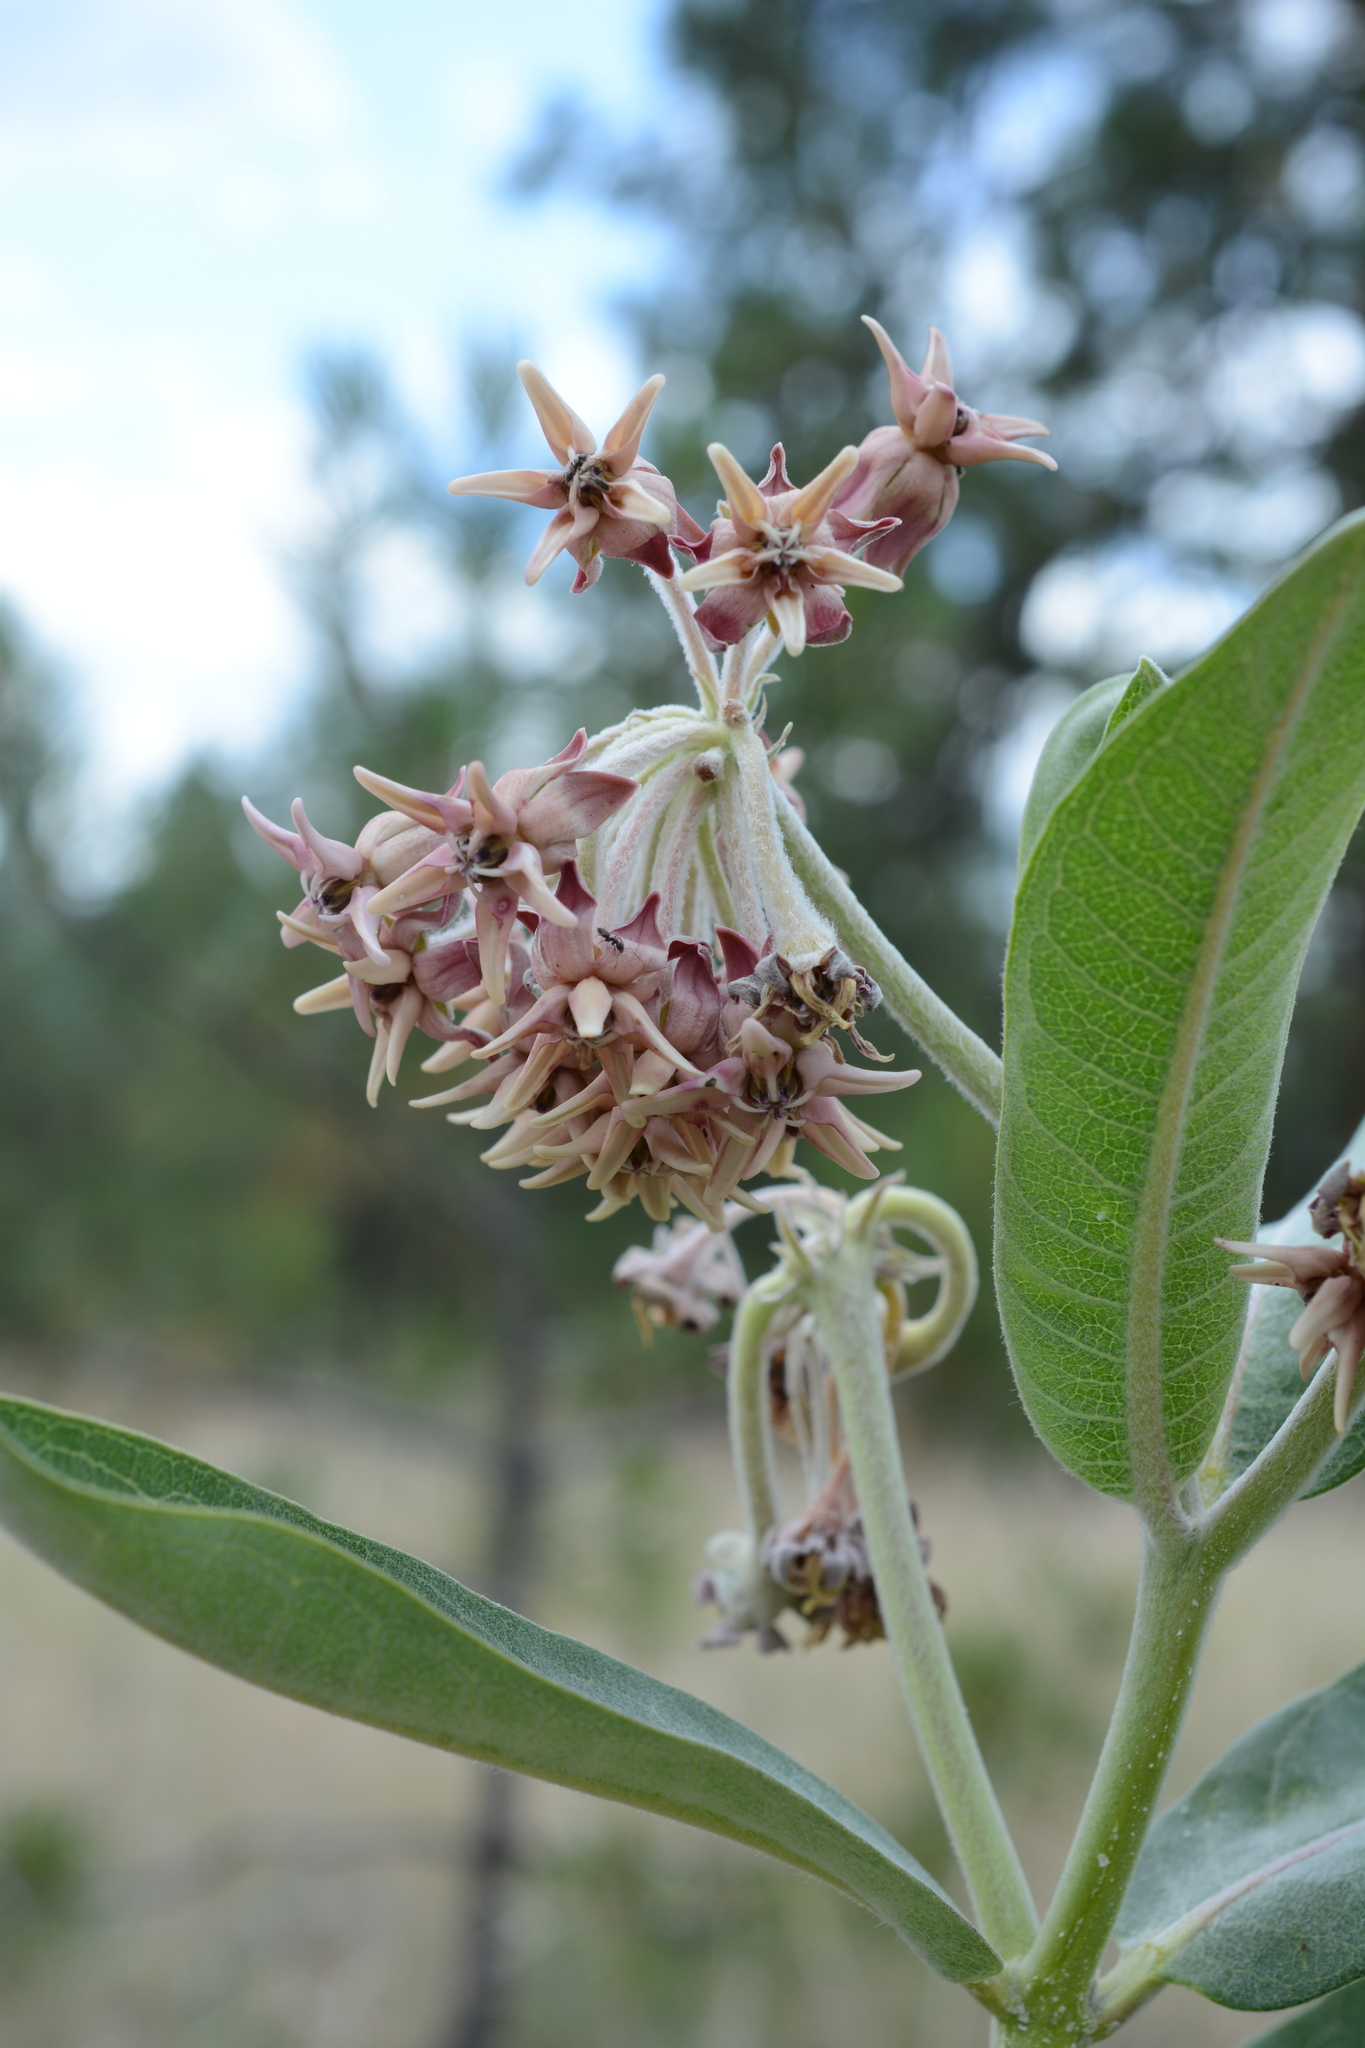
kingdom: Plantae
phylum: Tracheophyta
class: Magnoliopsida
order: Gentianales
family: Apocynaceae
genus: Asclepias
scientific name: Asclepias speciosa
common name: Showy milkweed
